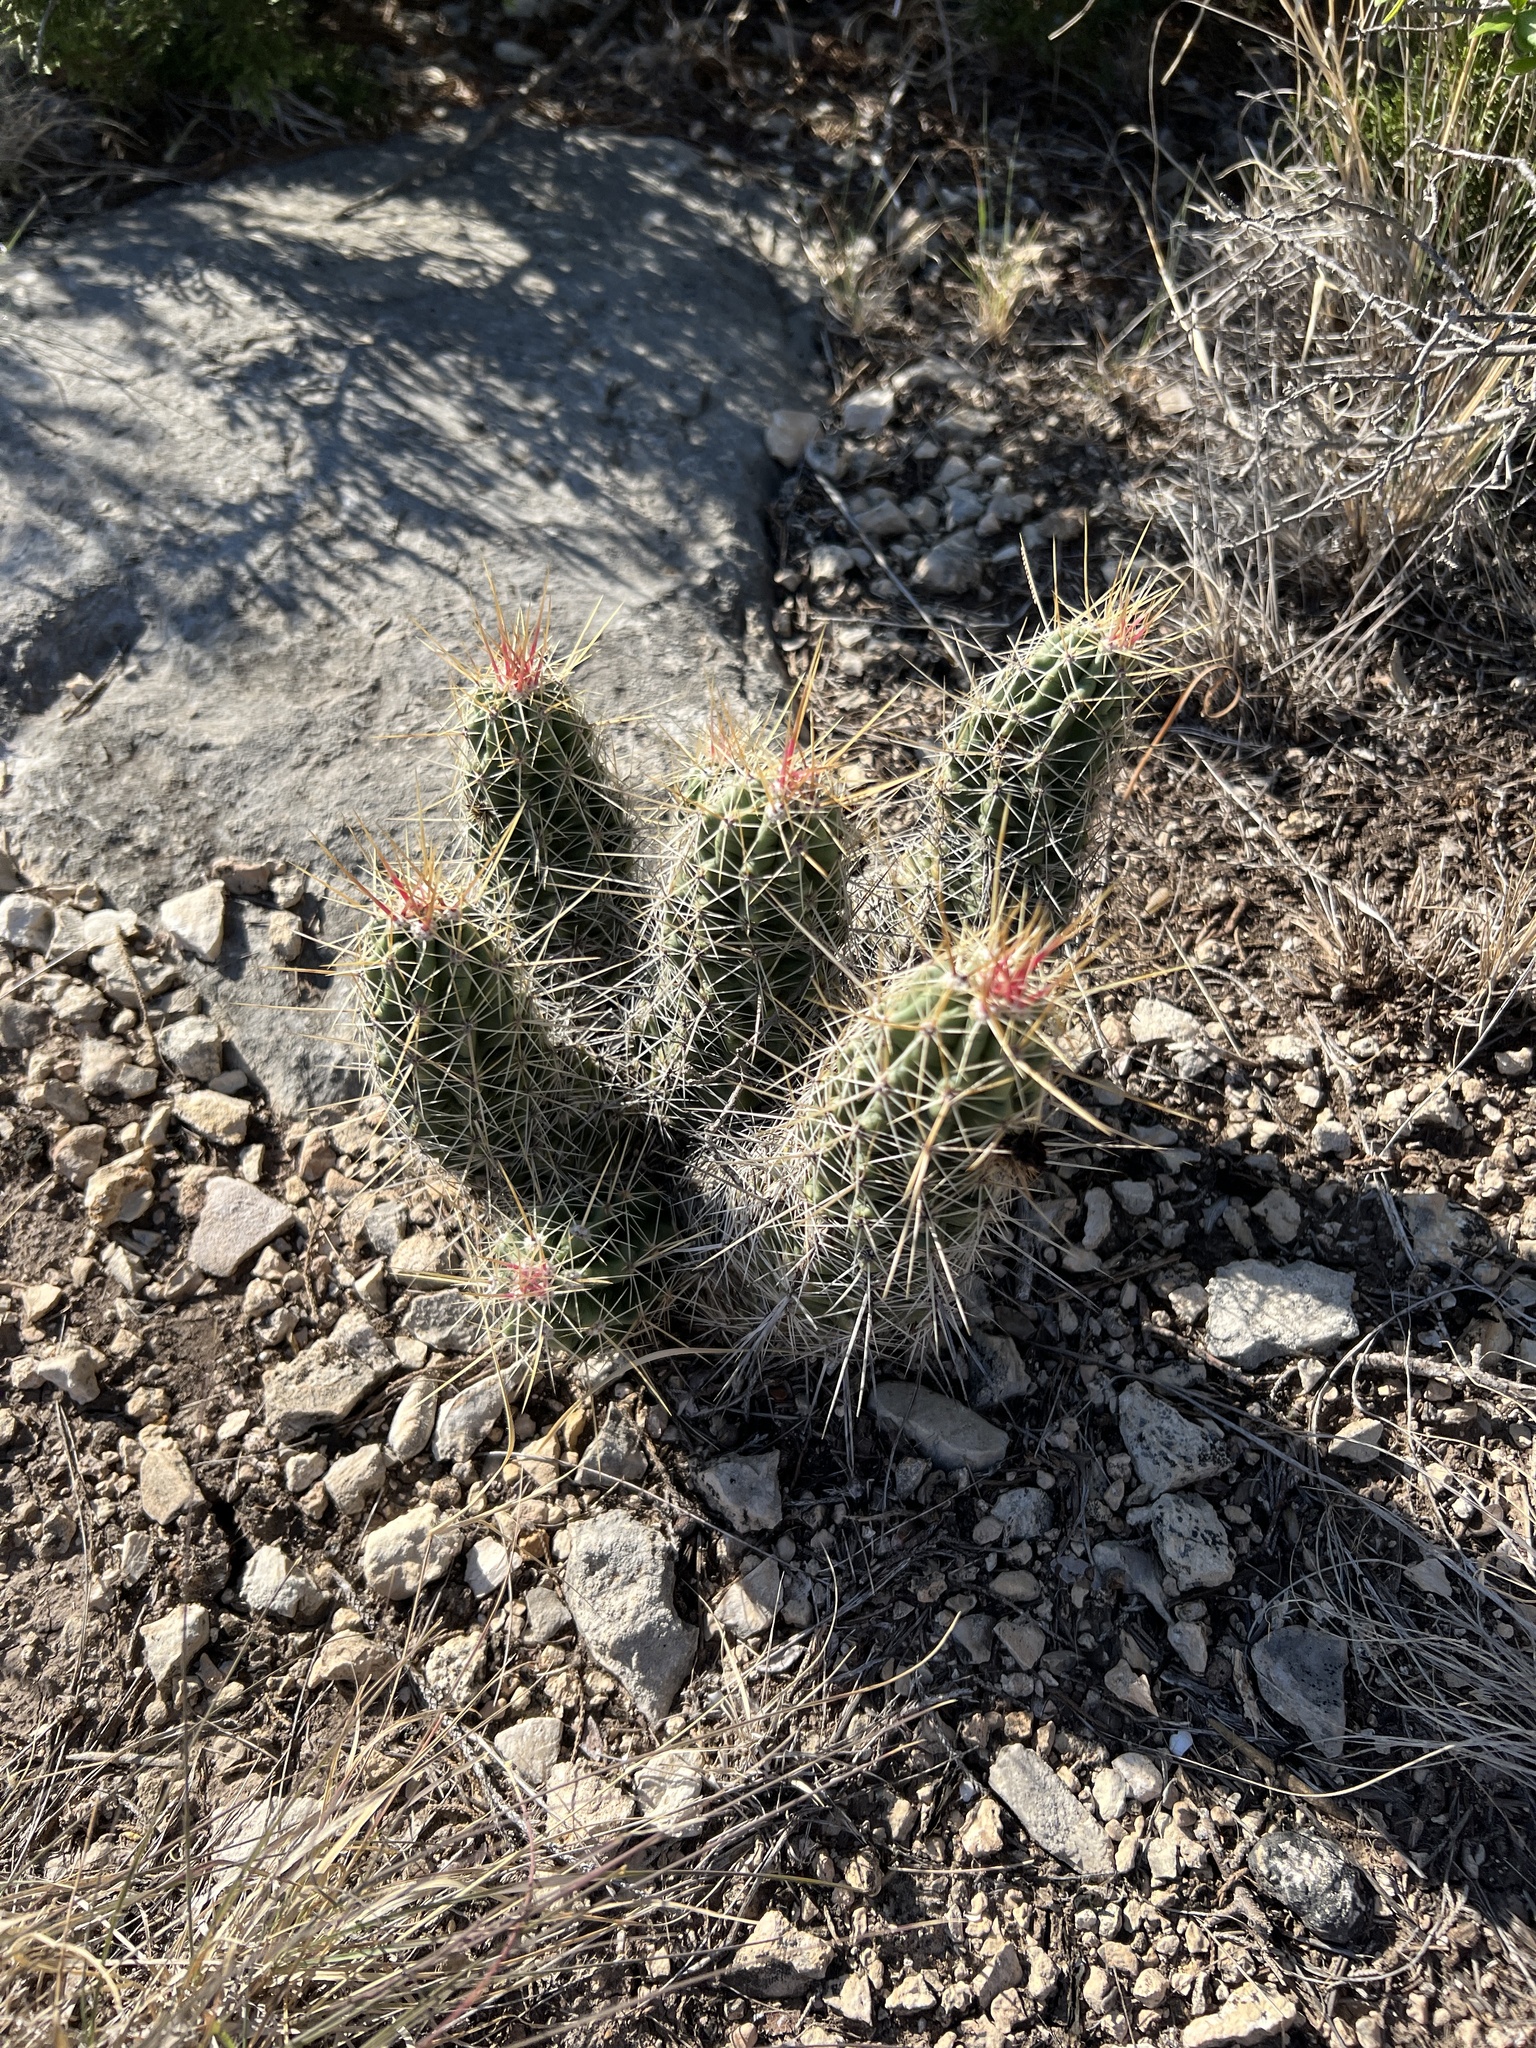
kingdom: Plantae
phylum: Tracheophyta
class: Magnoliopsida
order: Caryophyllales
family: Cactaceae
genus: Echinocereus
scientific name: Echinocereus enneacanthus
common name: Pitaya
